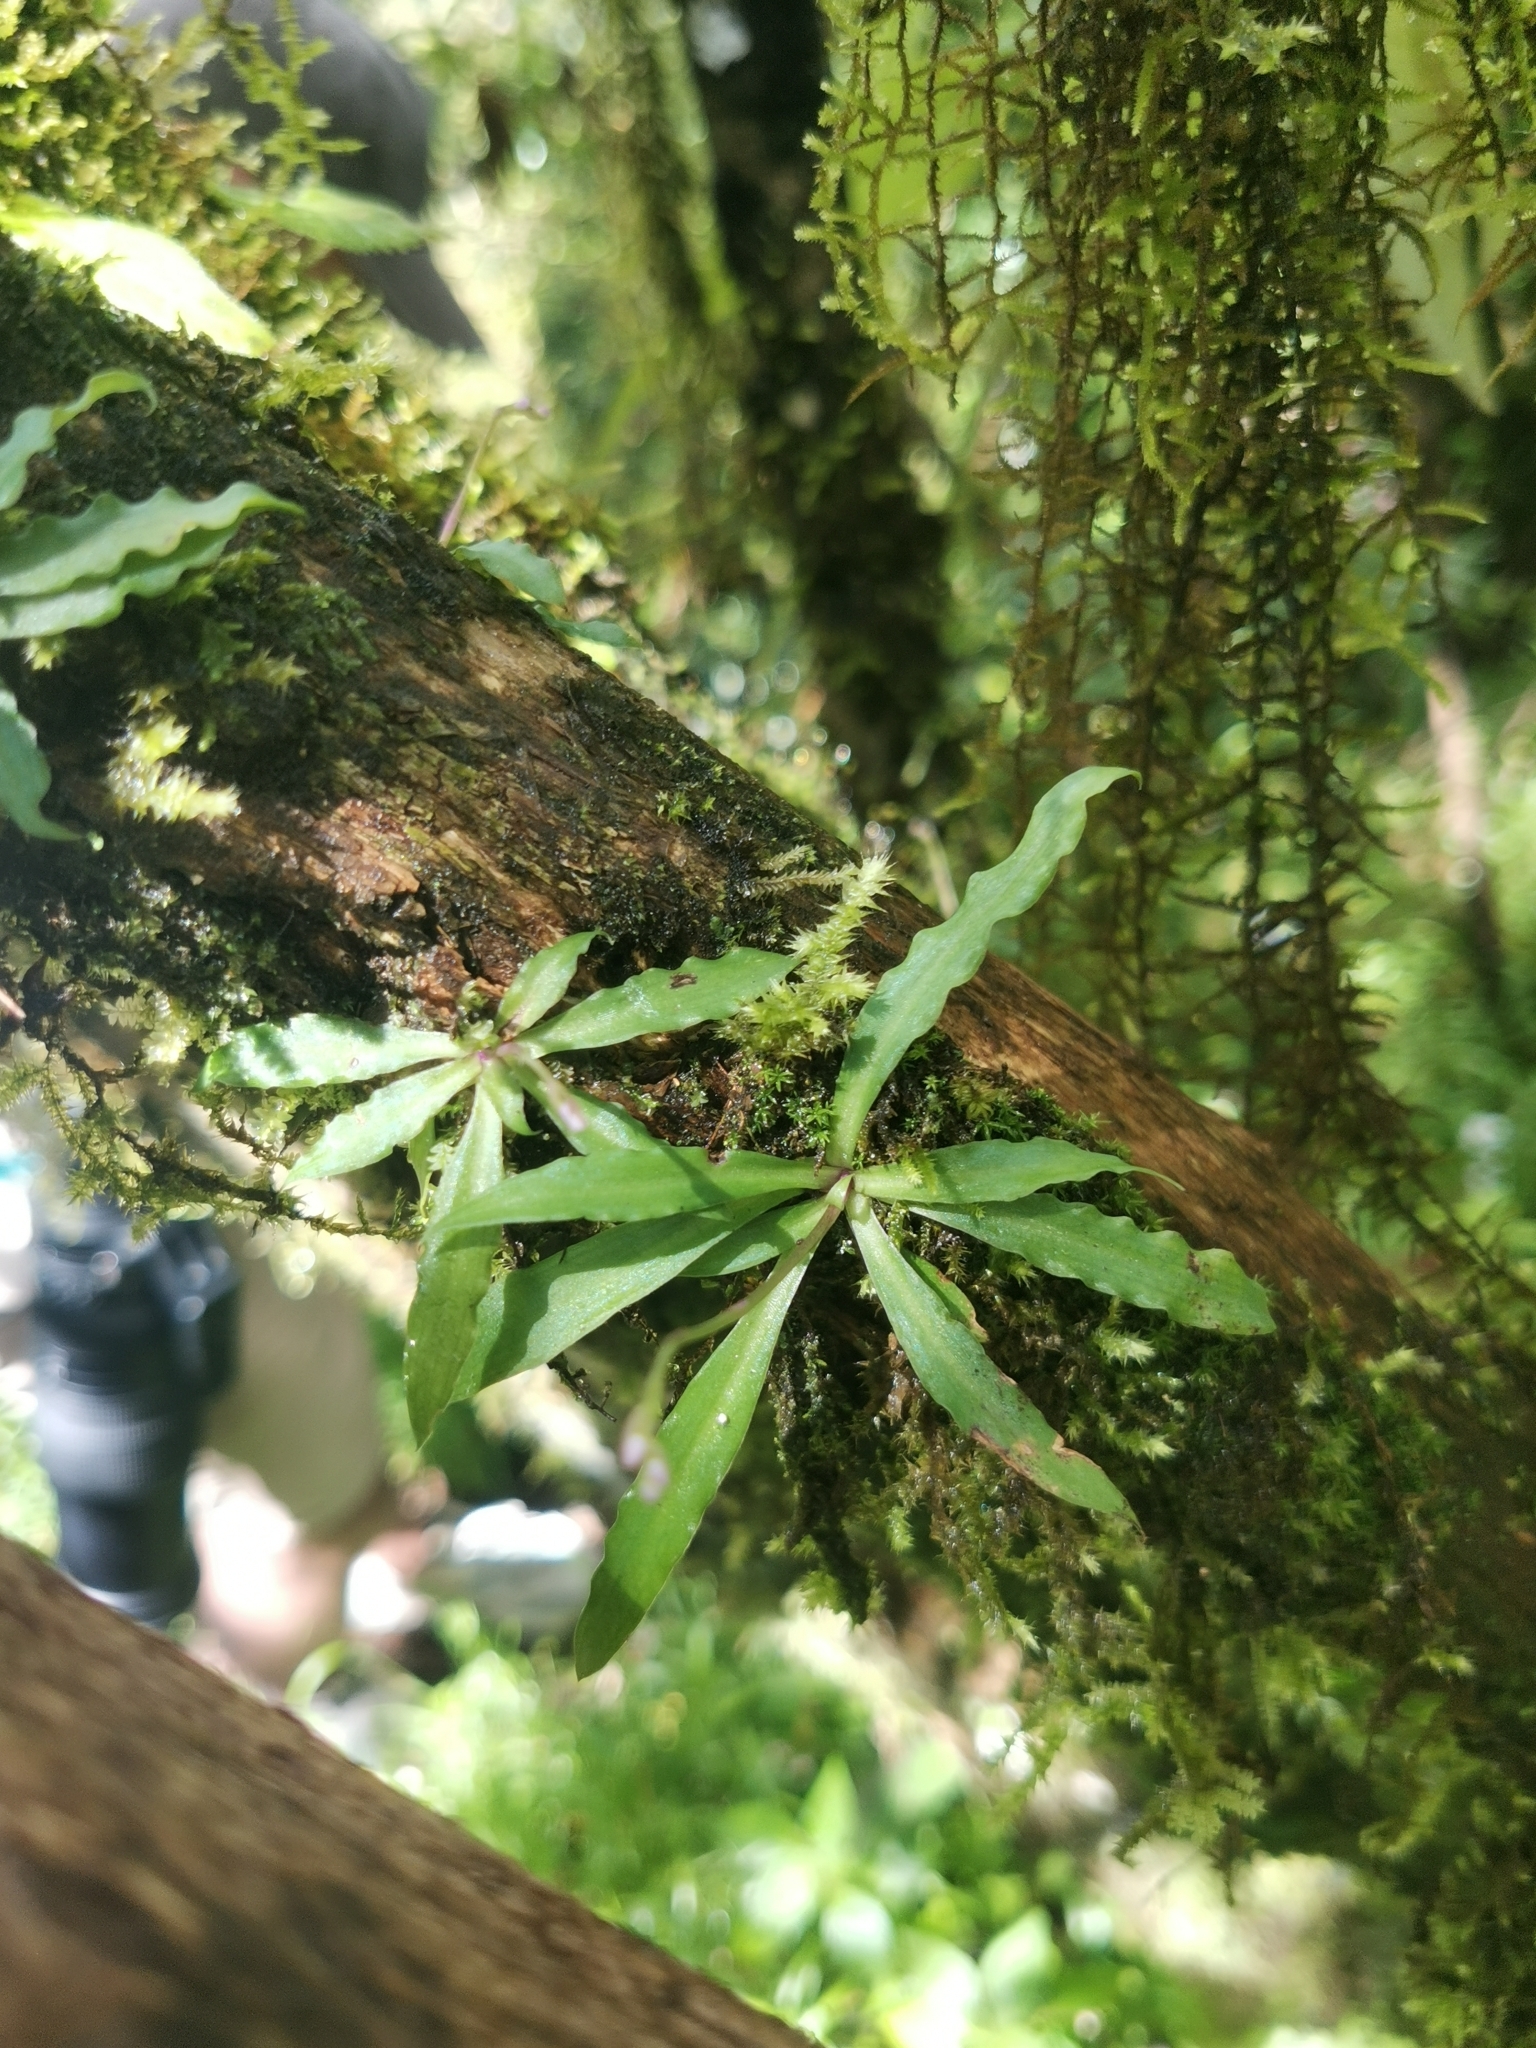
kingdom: Plantae
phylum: Tracheophyta
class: Liliopsida
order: Asparagales
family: Orchidaceae
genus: Stenoglottis
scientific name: Stenoglottis fimbriata
